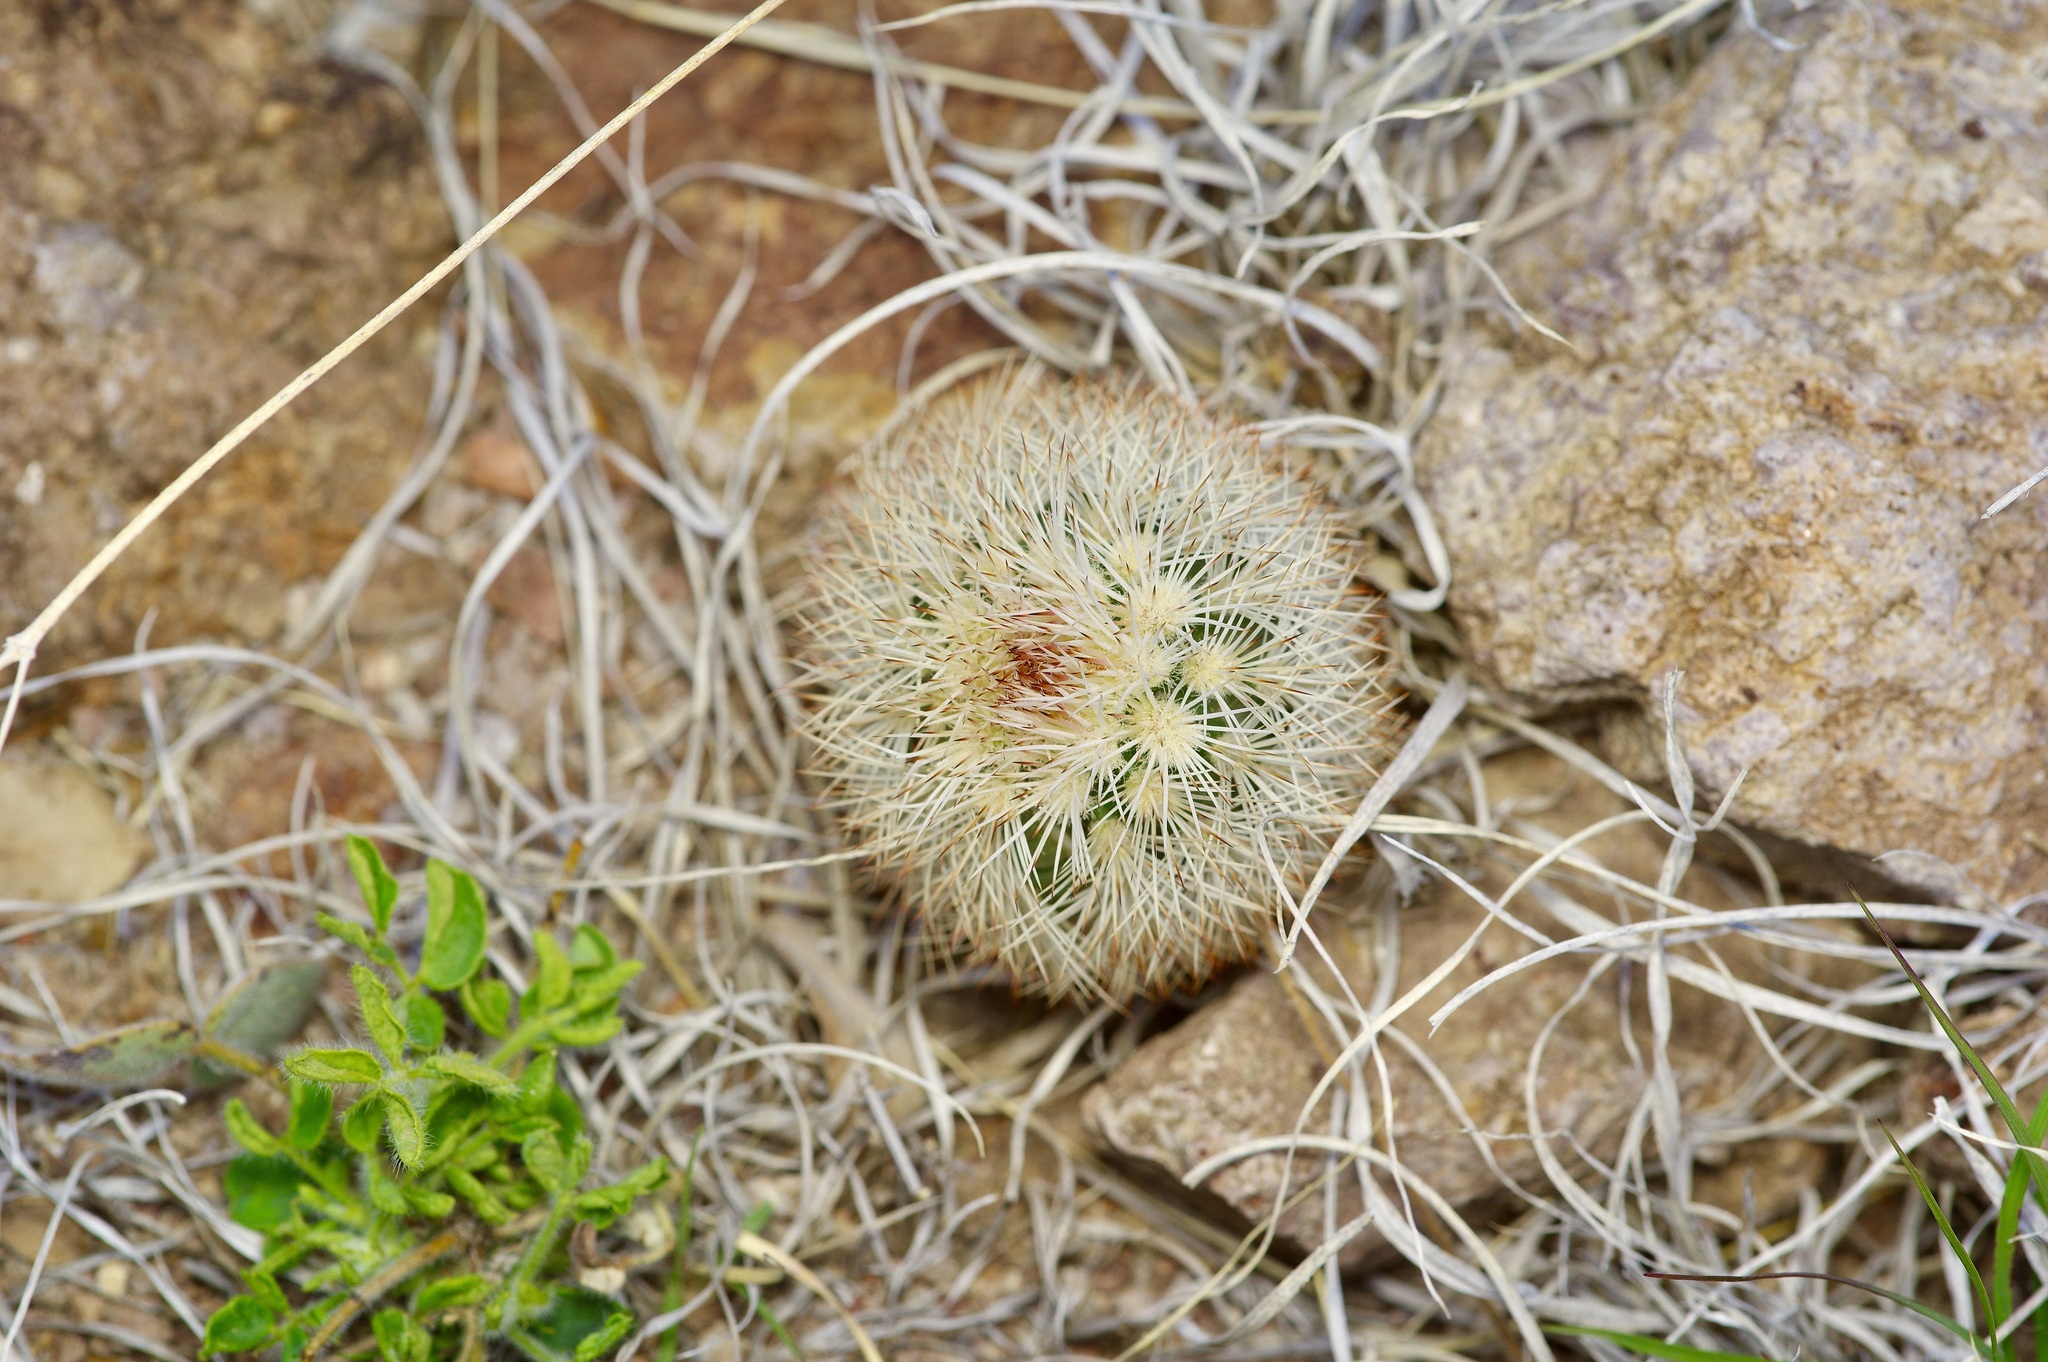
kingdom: Plantae
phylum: Tracheophyta
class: Magnoliopsida
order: Caryophyllales
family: Cactaceae
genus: Echinocereus
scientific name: Echinocereus dasyacanthus
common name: Spiny hedgehog cactus
